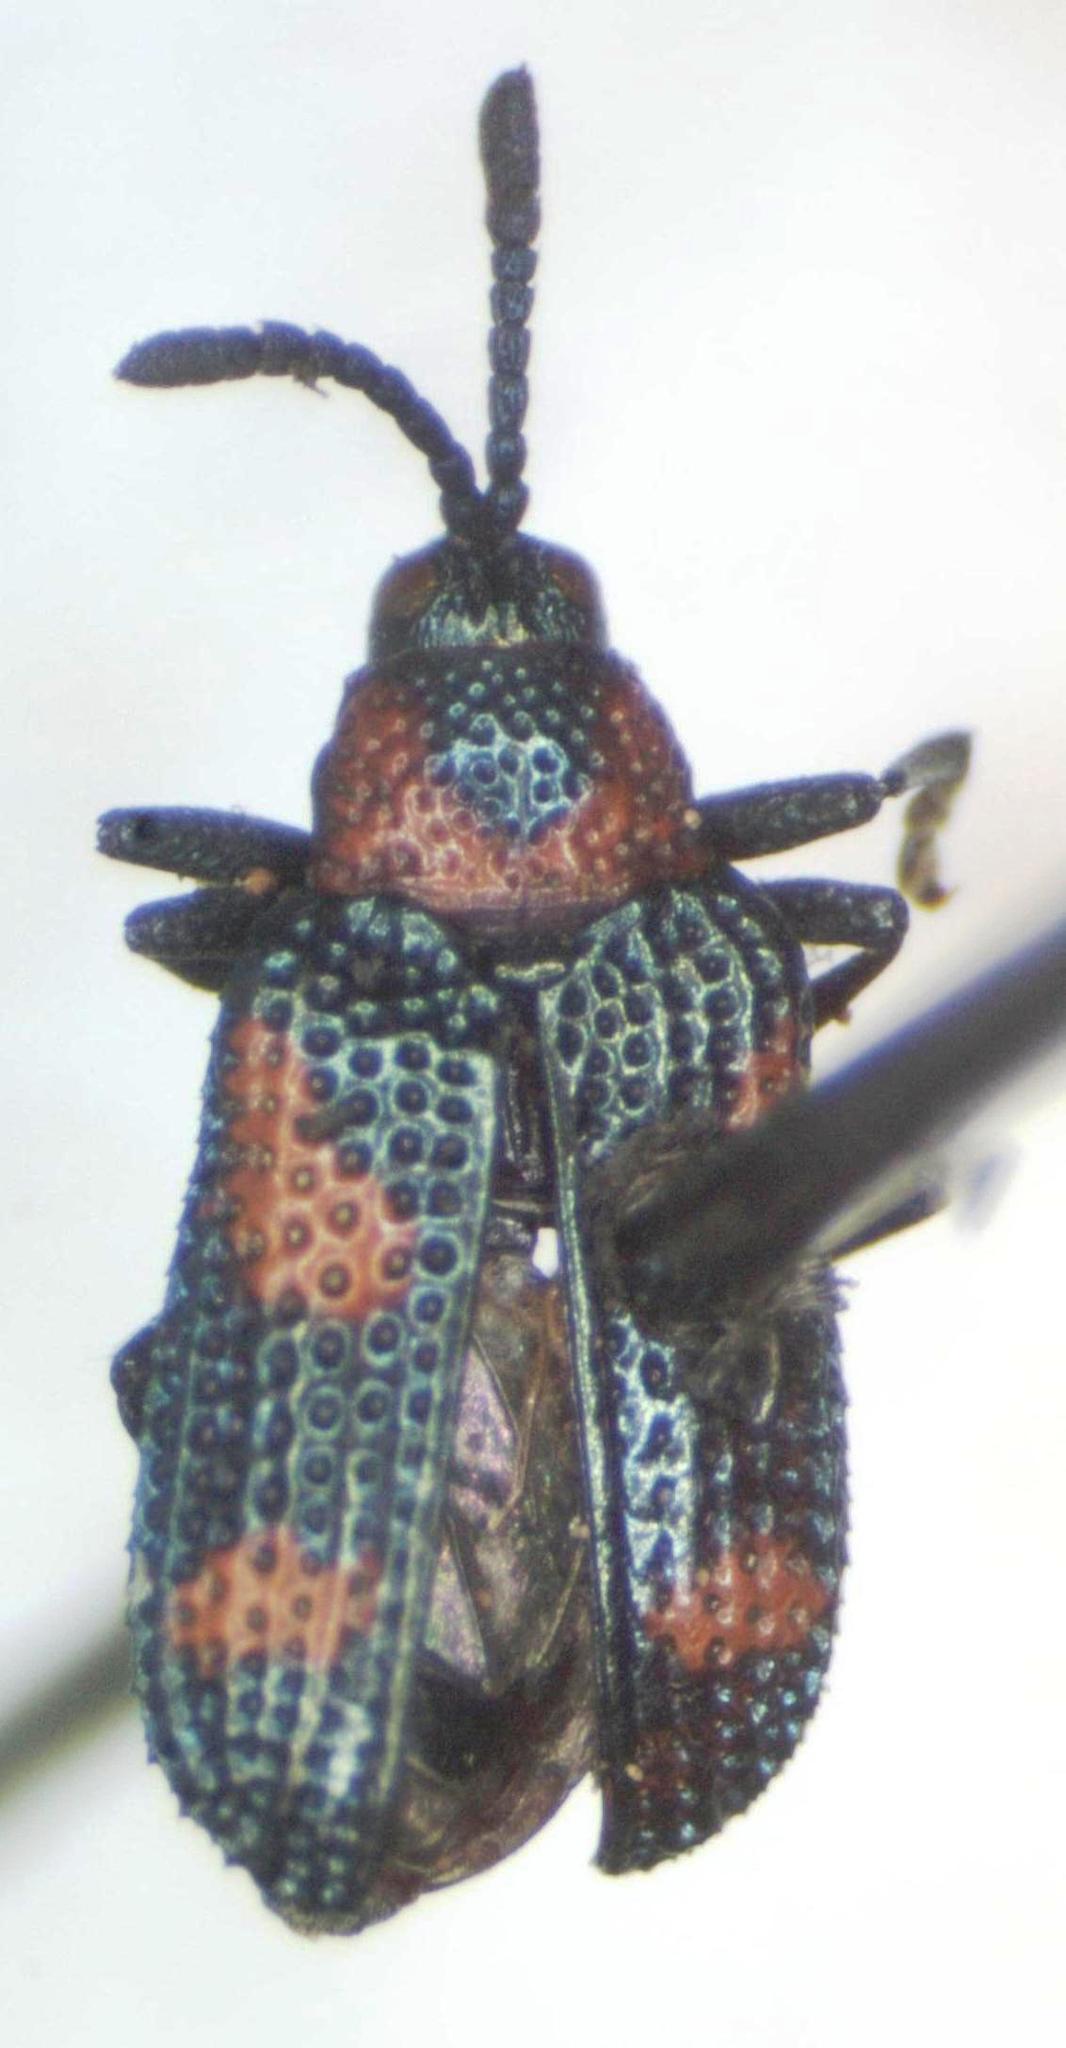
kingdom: Animalia
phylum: Arthropoda
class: Insecta
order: Coleoptera
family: Chrysomelidae
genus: Microrhopala
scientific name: Microrhopala perforata
